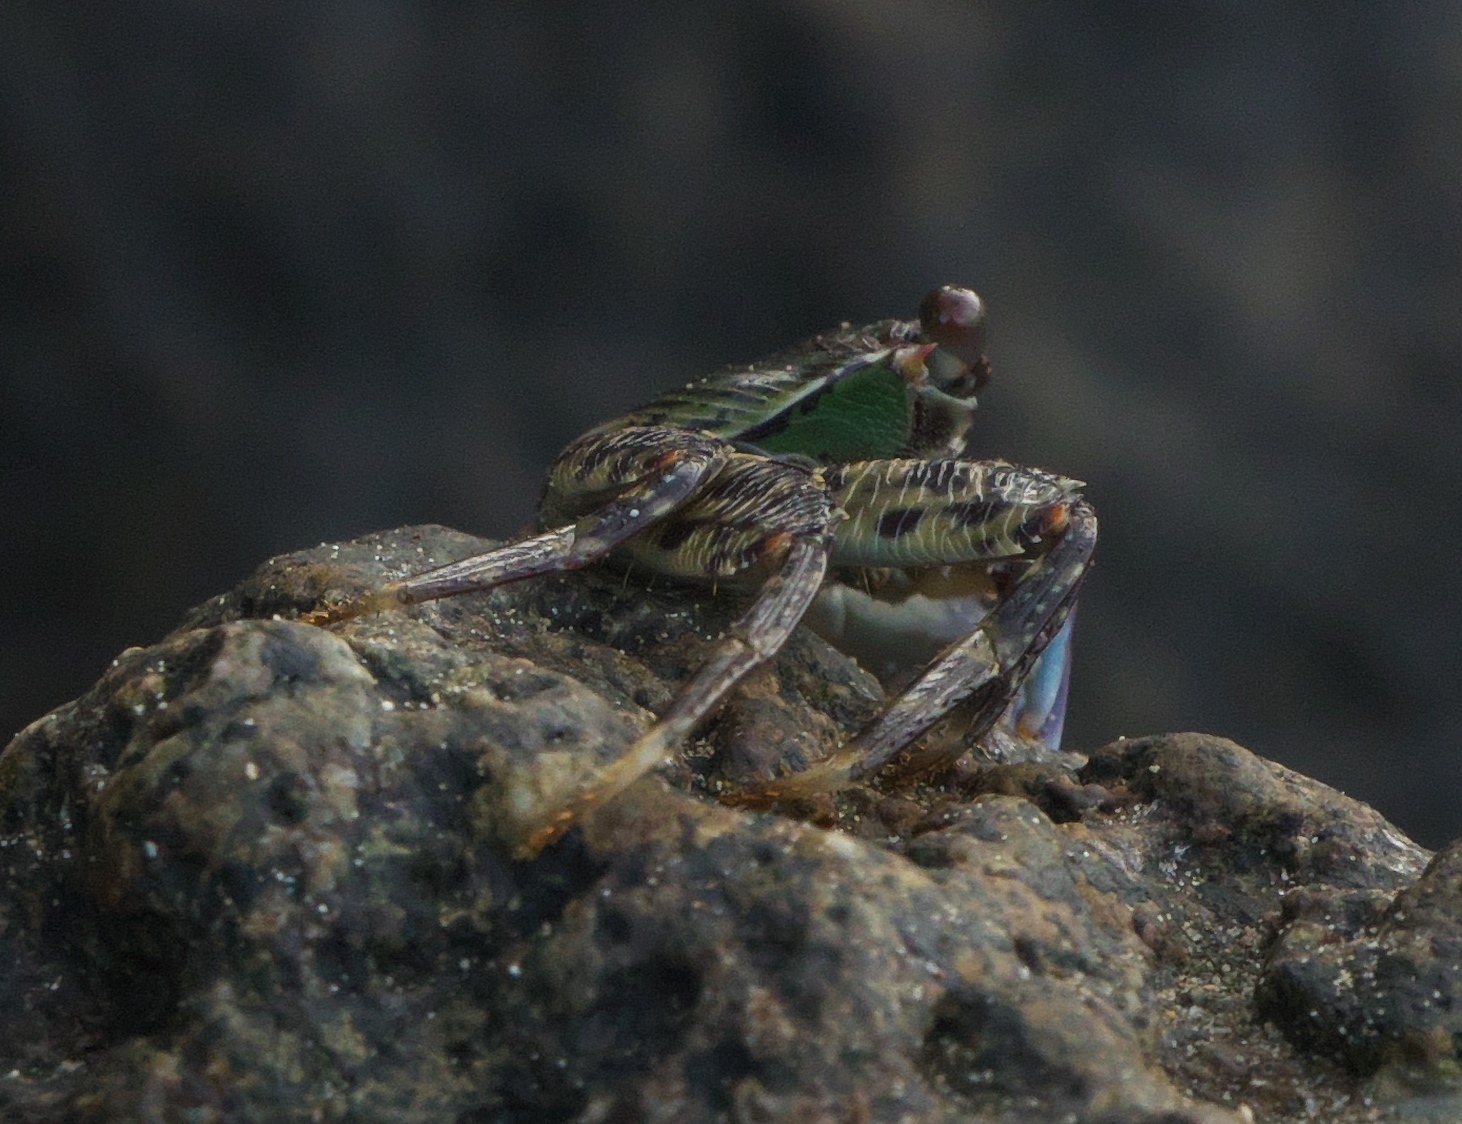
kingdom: Animalia
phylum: Arthropoda
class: Malacostraca
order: Decapoda
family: Grapsidae
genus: Grapsus
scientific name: Grapsus albolineatus
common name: Mottled lightfoot crab
